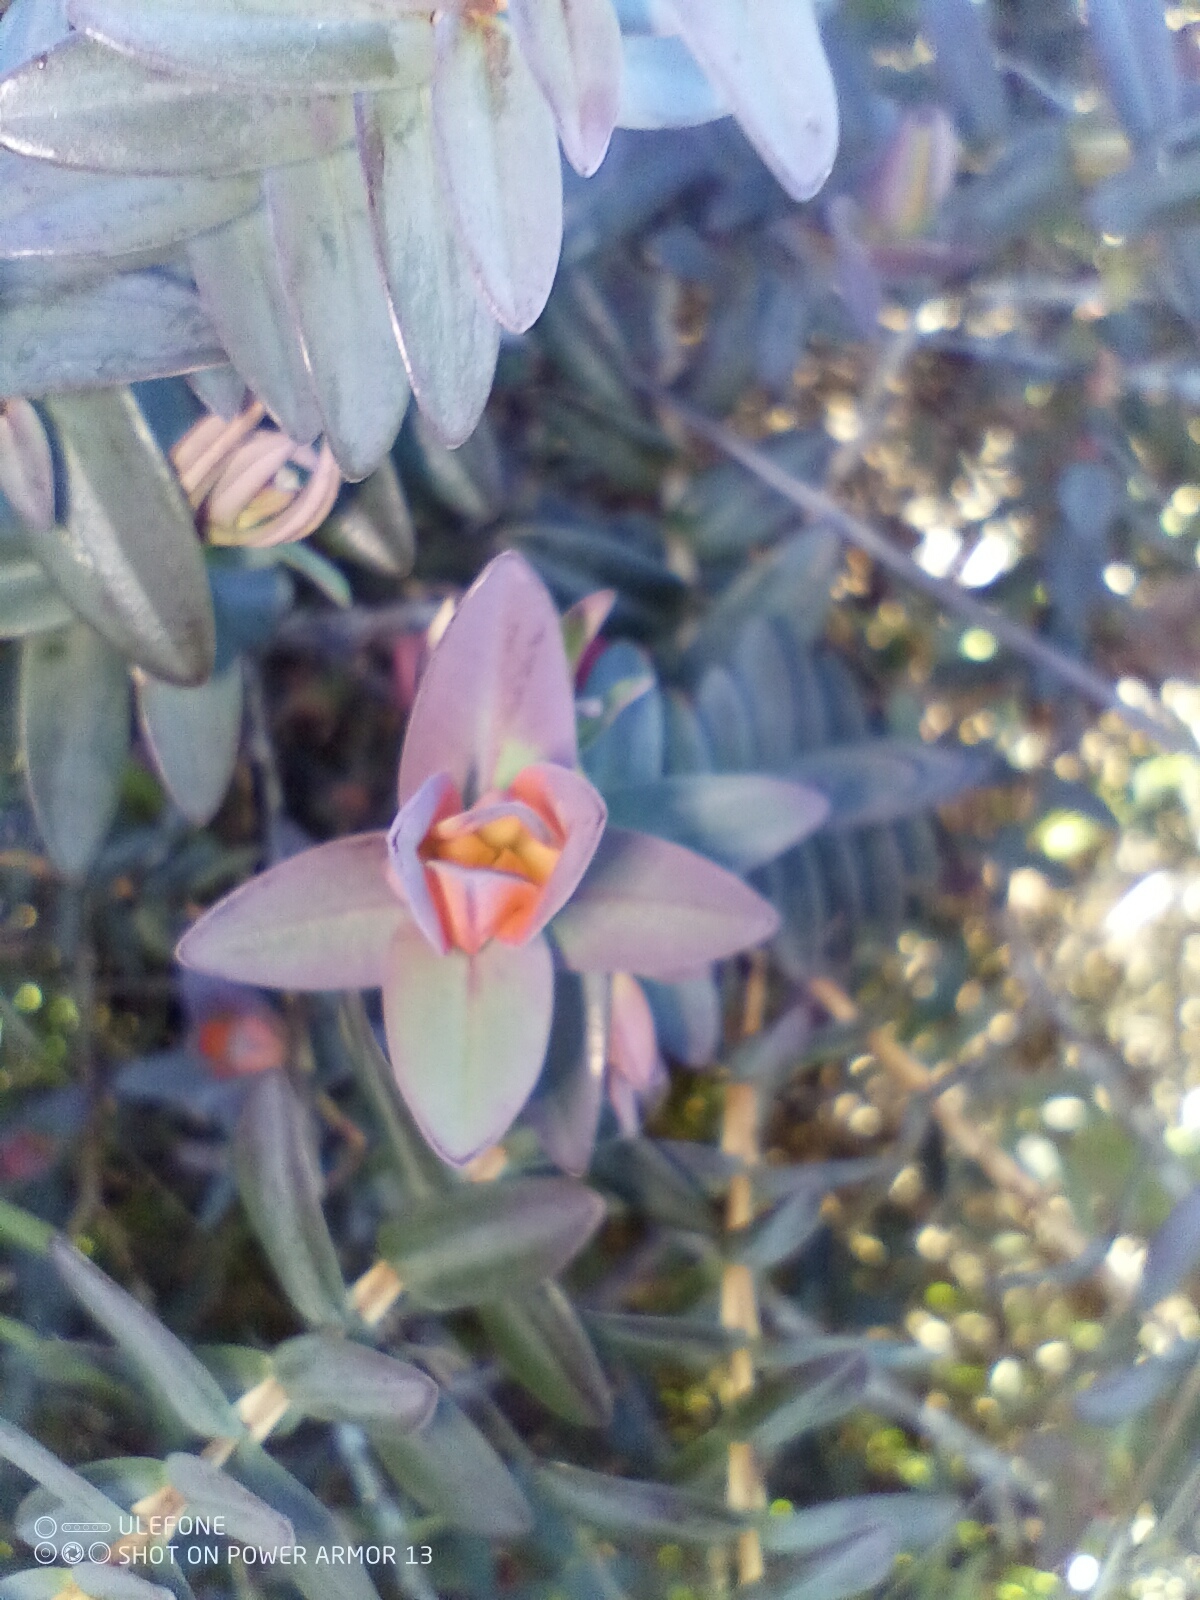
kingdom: Plantae
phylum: Tracheophyta
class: Magnoliopsida
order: Myrtales
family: Myrtaceae
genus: Darwinia
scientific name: Darwinia citriodora
